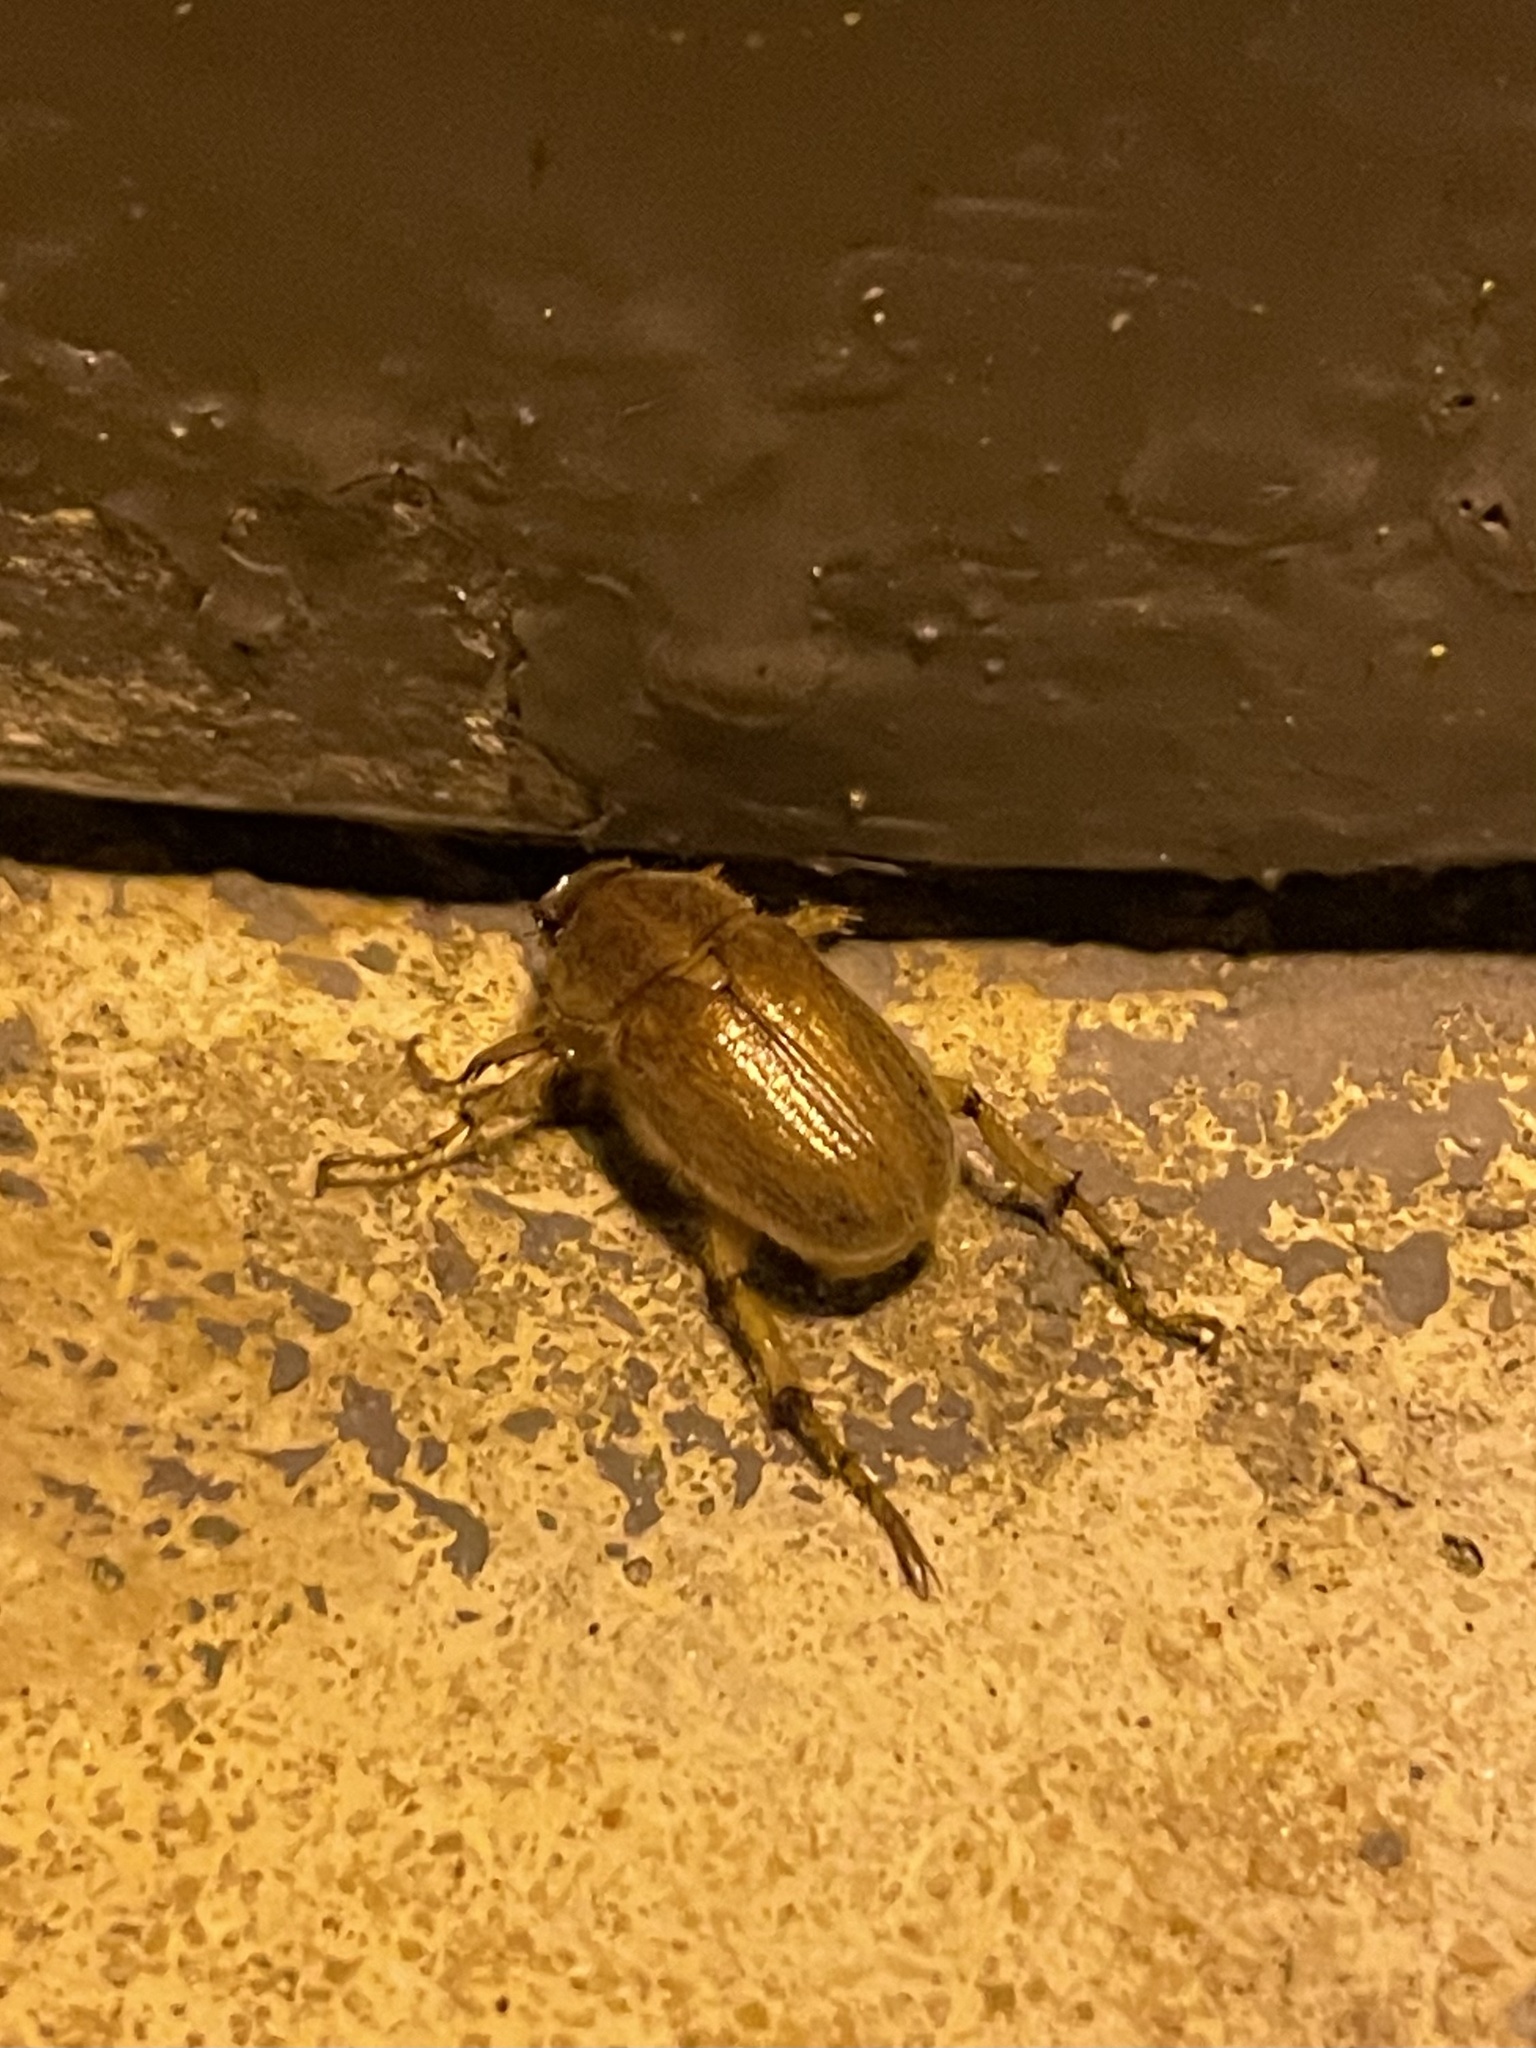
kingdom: Animalia
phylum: Arthropoda
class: Insecta
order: Coleoptera
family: Scarabaeidae
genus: Plectris
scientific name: Plectris aliena
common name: Scarab beetle
